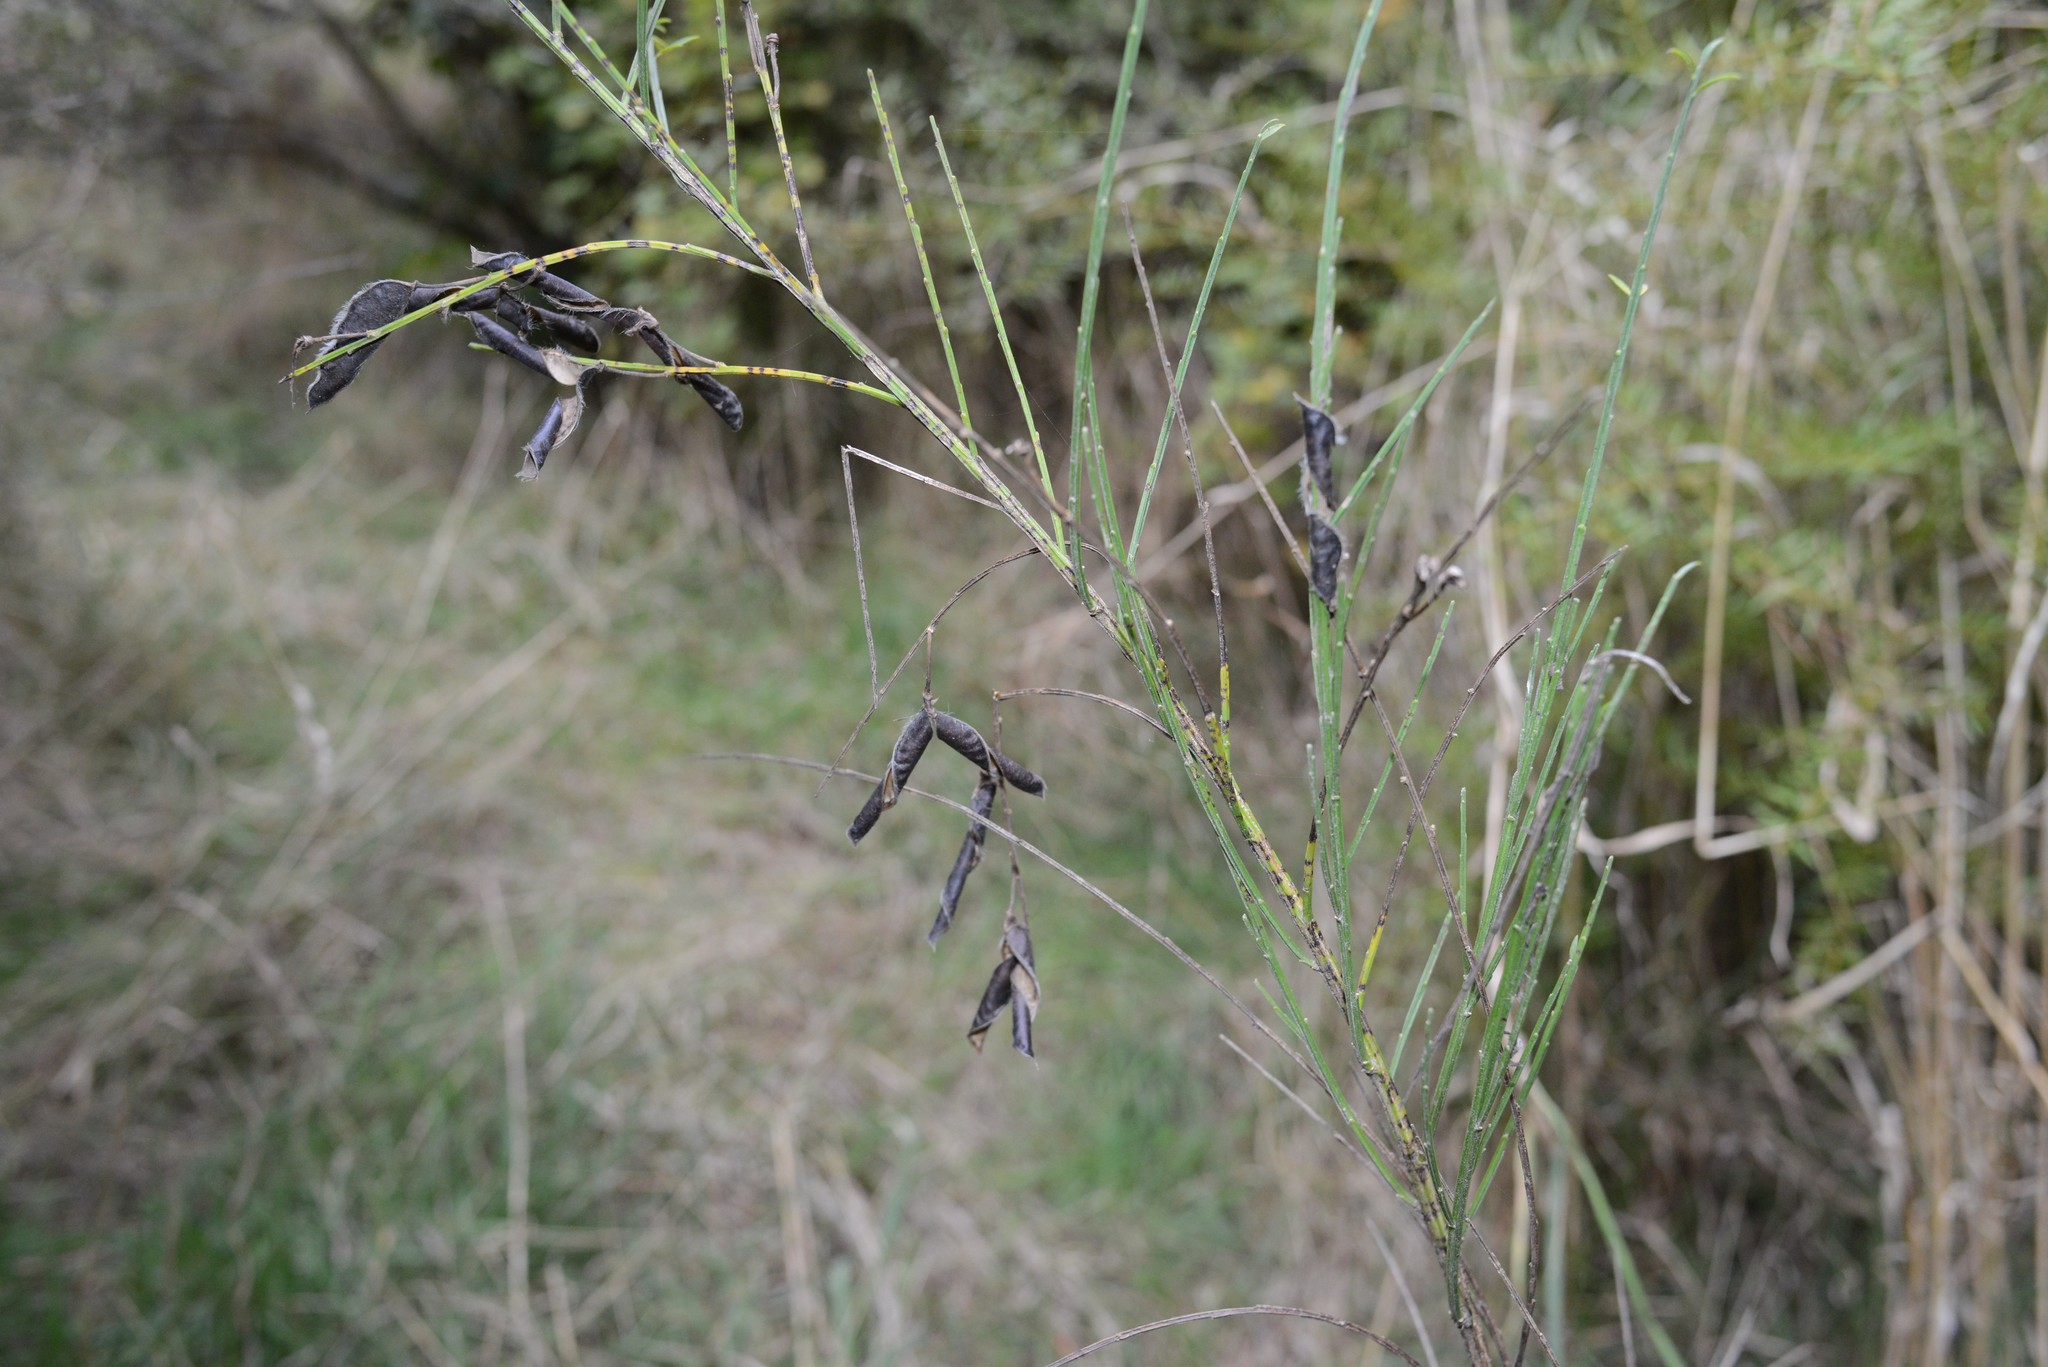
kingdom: Plantae
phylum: Tracheophyta
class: Magnoliopsida
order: Fabales
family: Fabaceae
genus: Cytisus
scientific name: Cytisus scoparius
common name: Scotch broom
